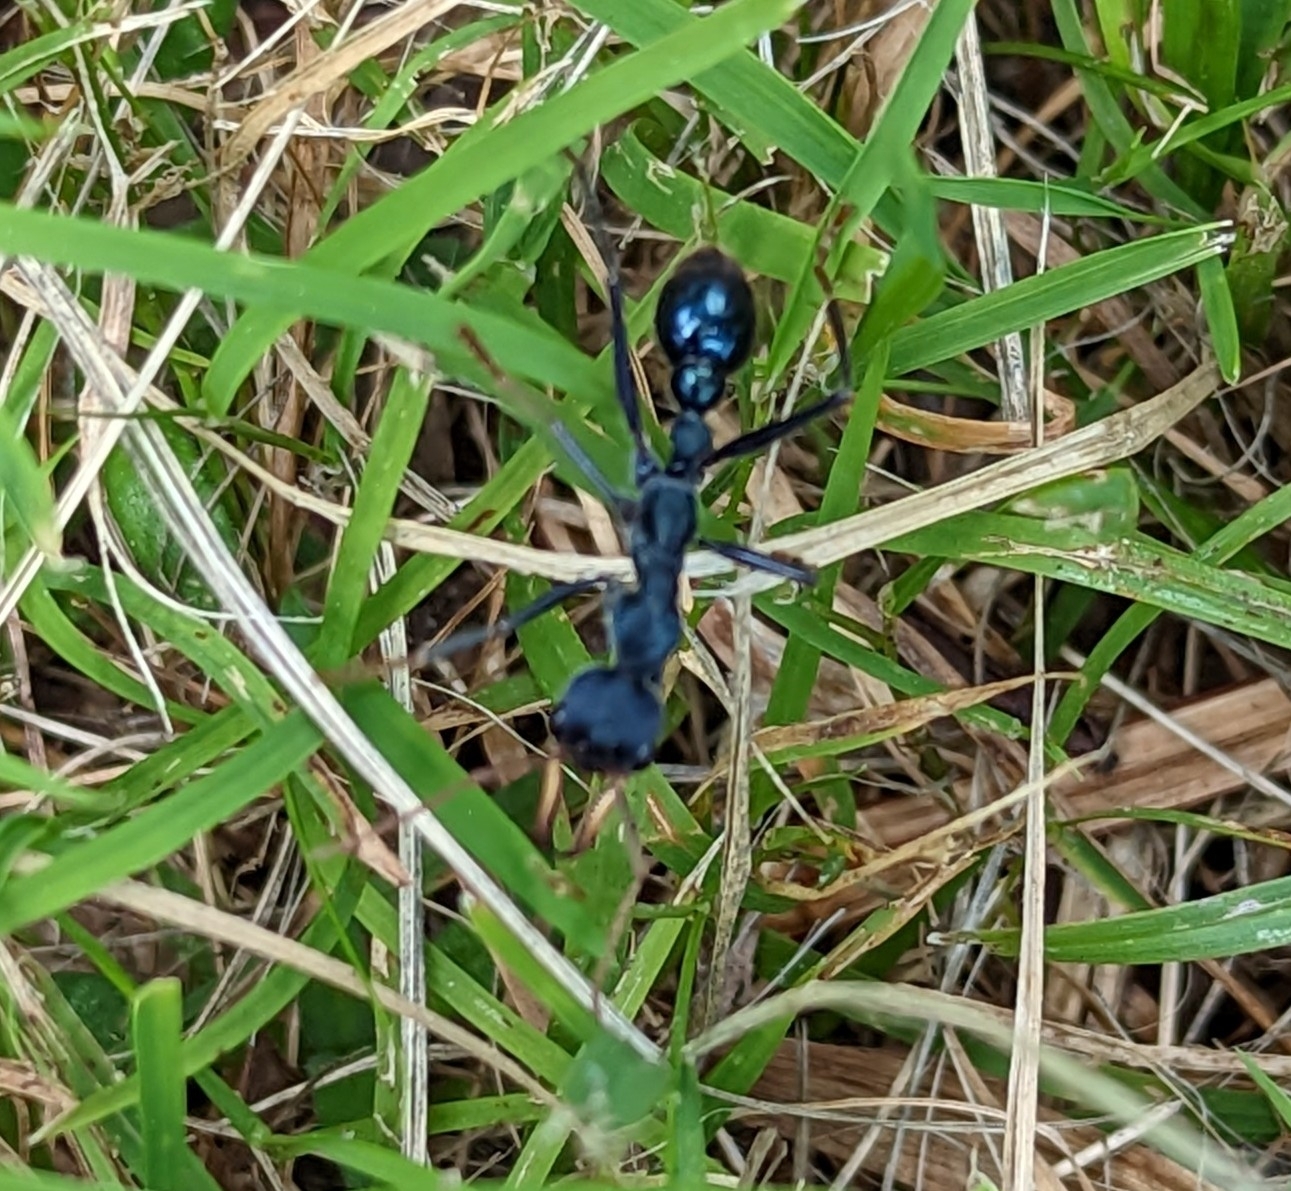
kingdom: Animalia
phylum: Arthropoda
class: Insecta
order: Hymenoptera
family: Formicidae
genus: Myrmecia
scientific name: Myrmecia tarsata
